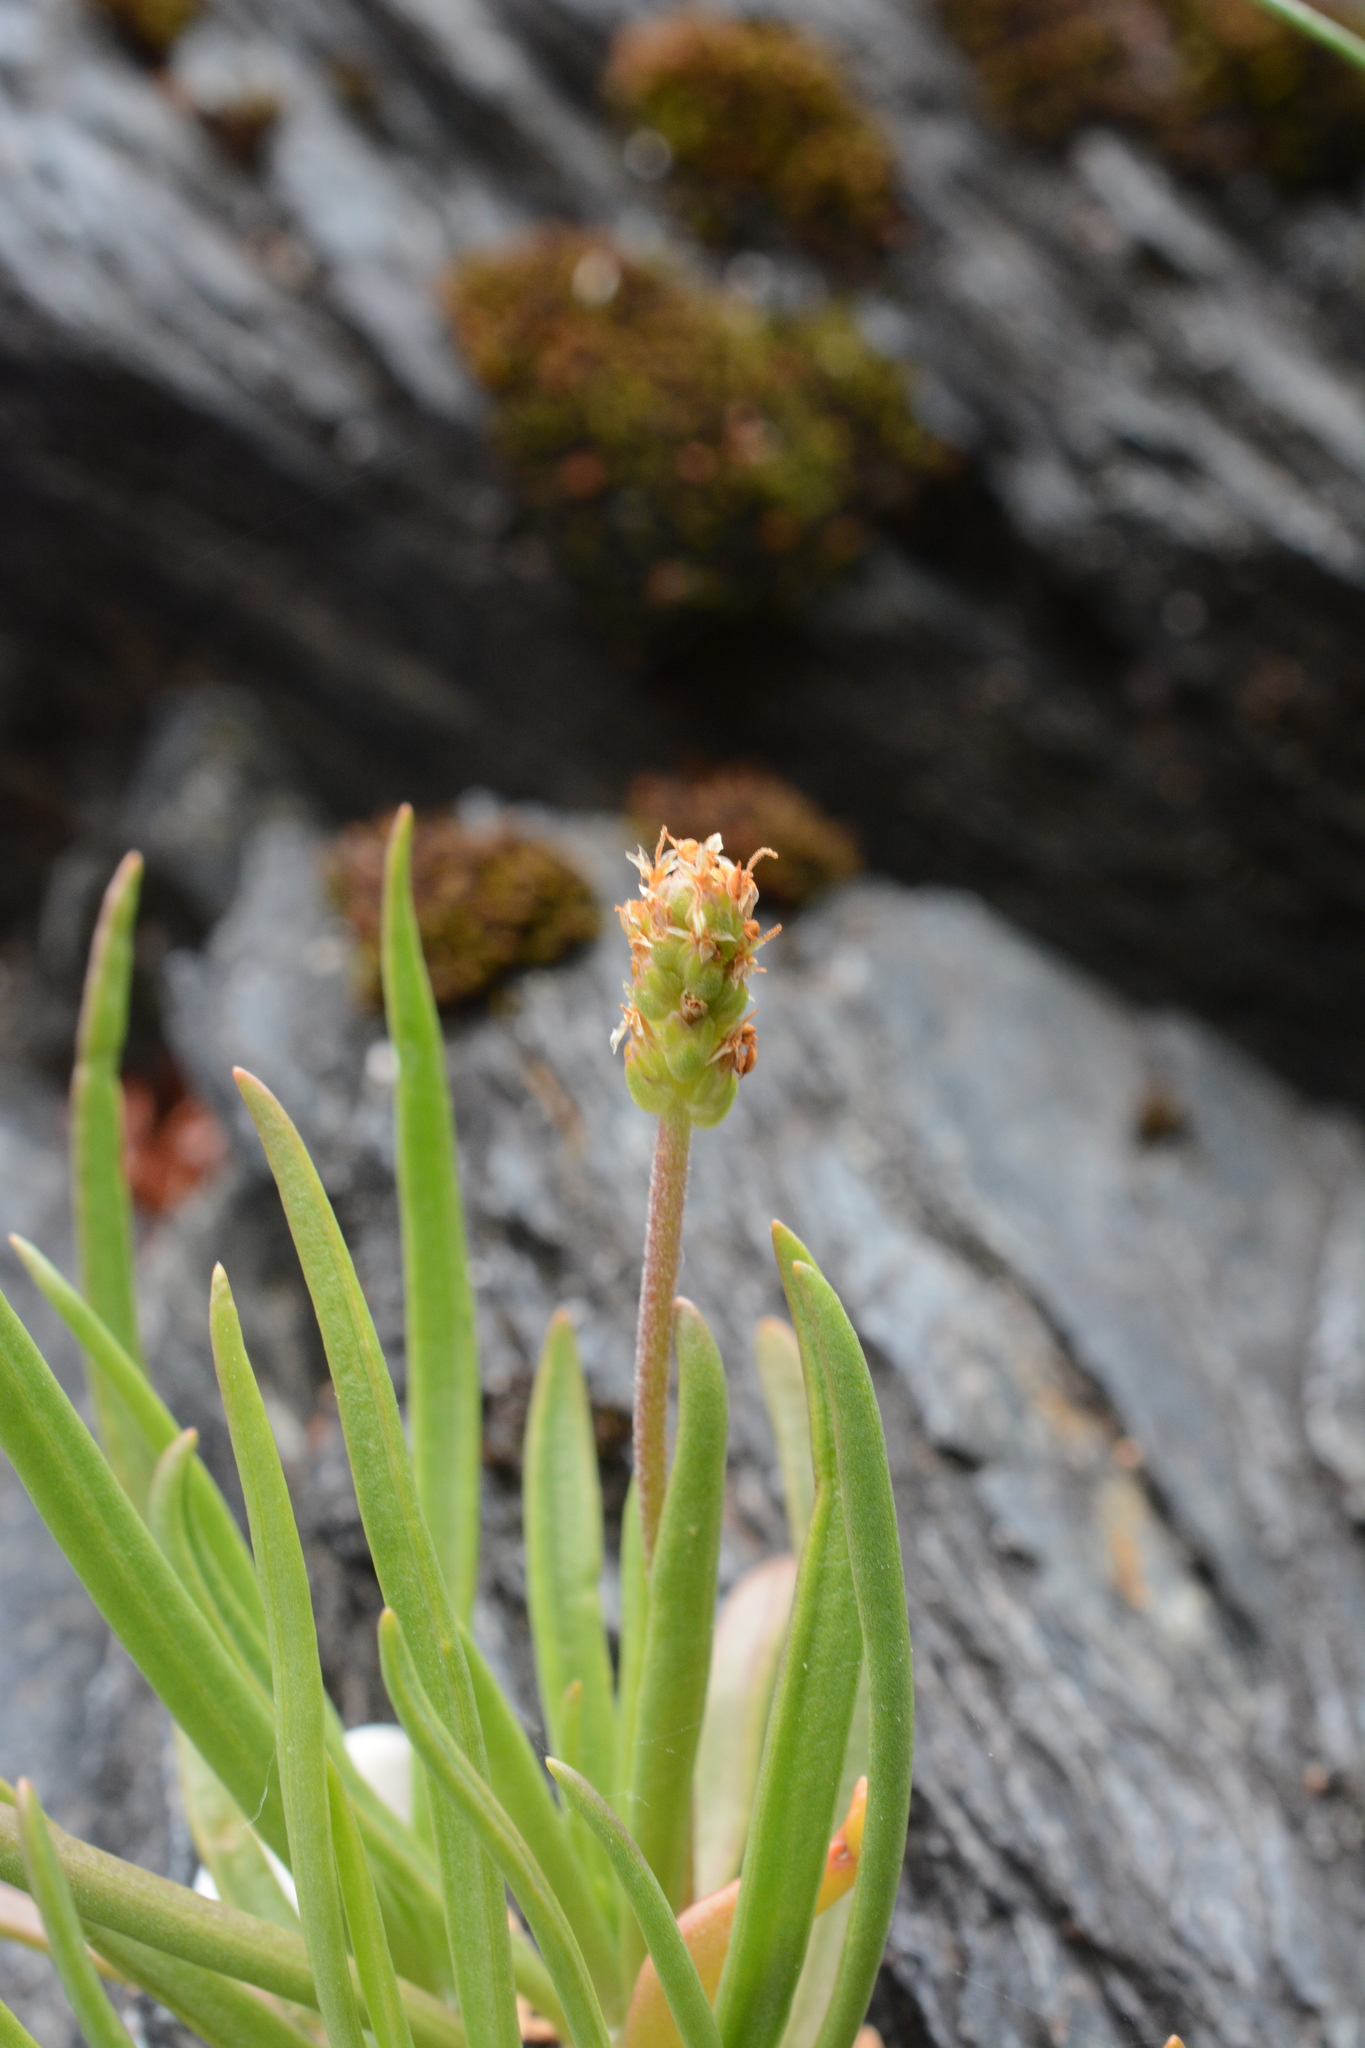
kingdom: Plantae
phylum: Tracheophyta
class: Magnoliopsida
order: Lamiales
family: Plantaginaceae
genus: Plantago
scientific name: Plantago maritima
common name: Sea plantain
